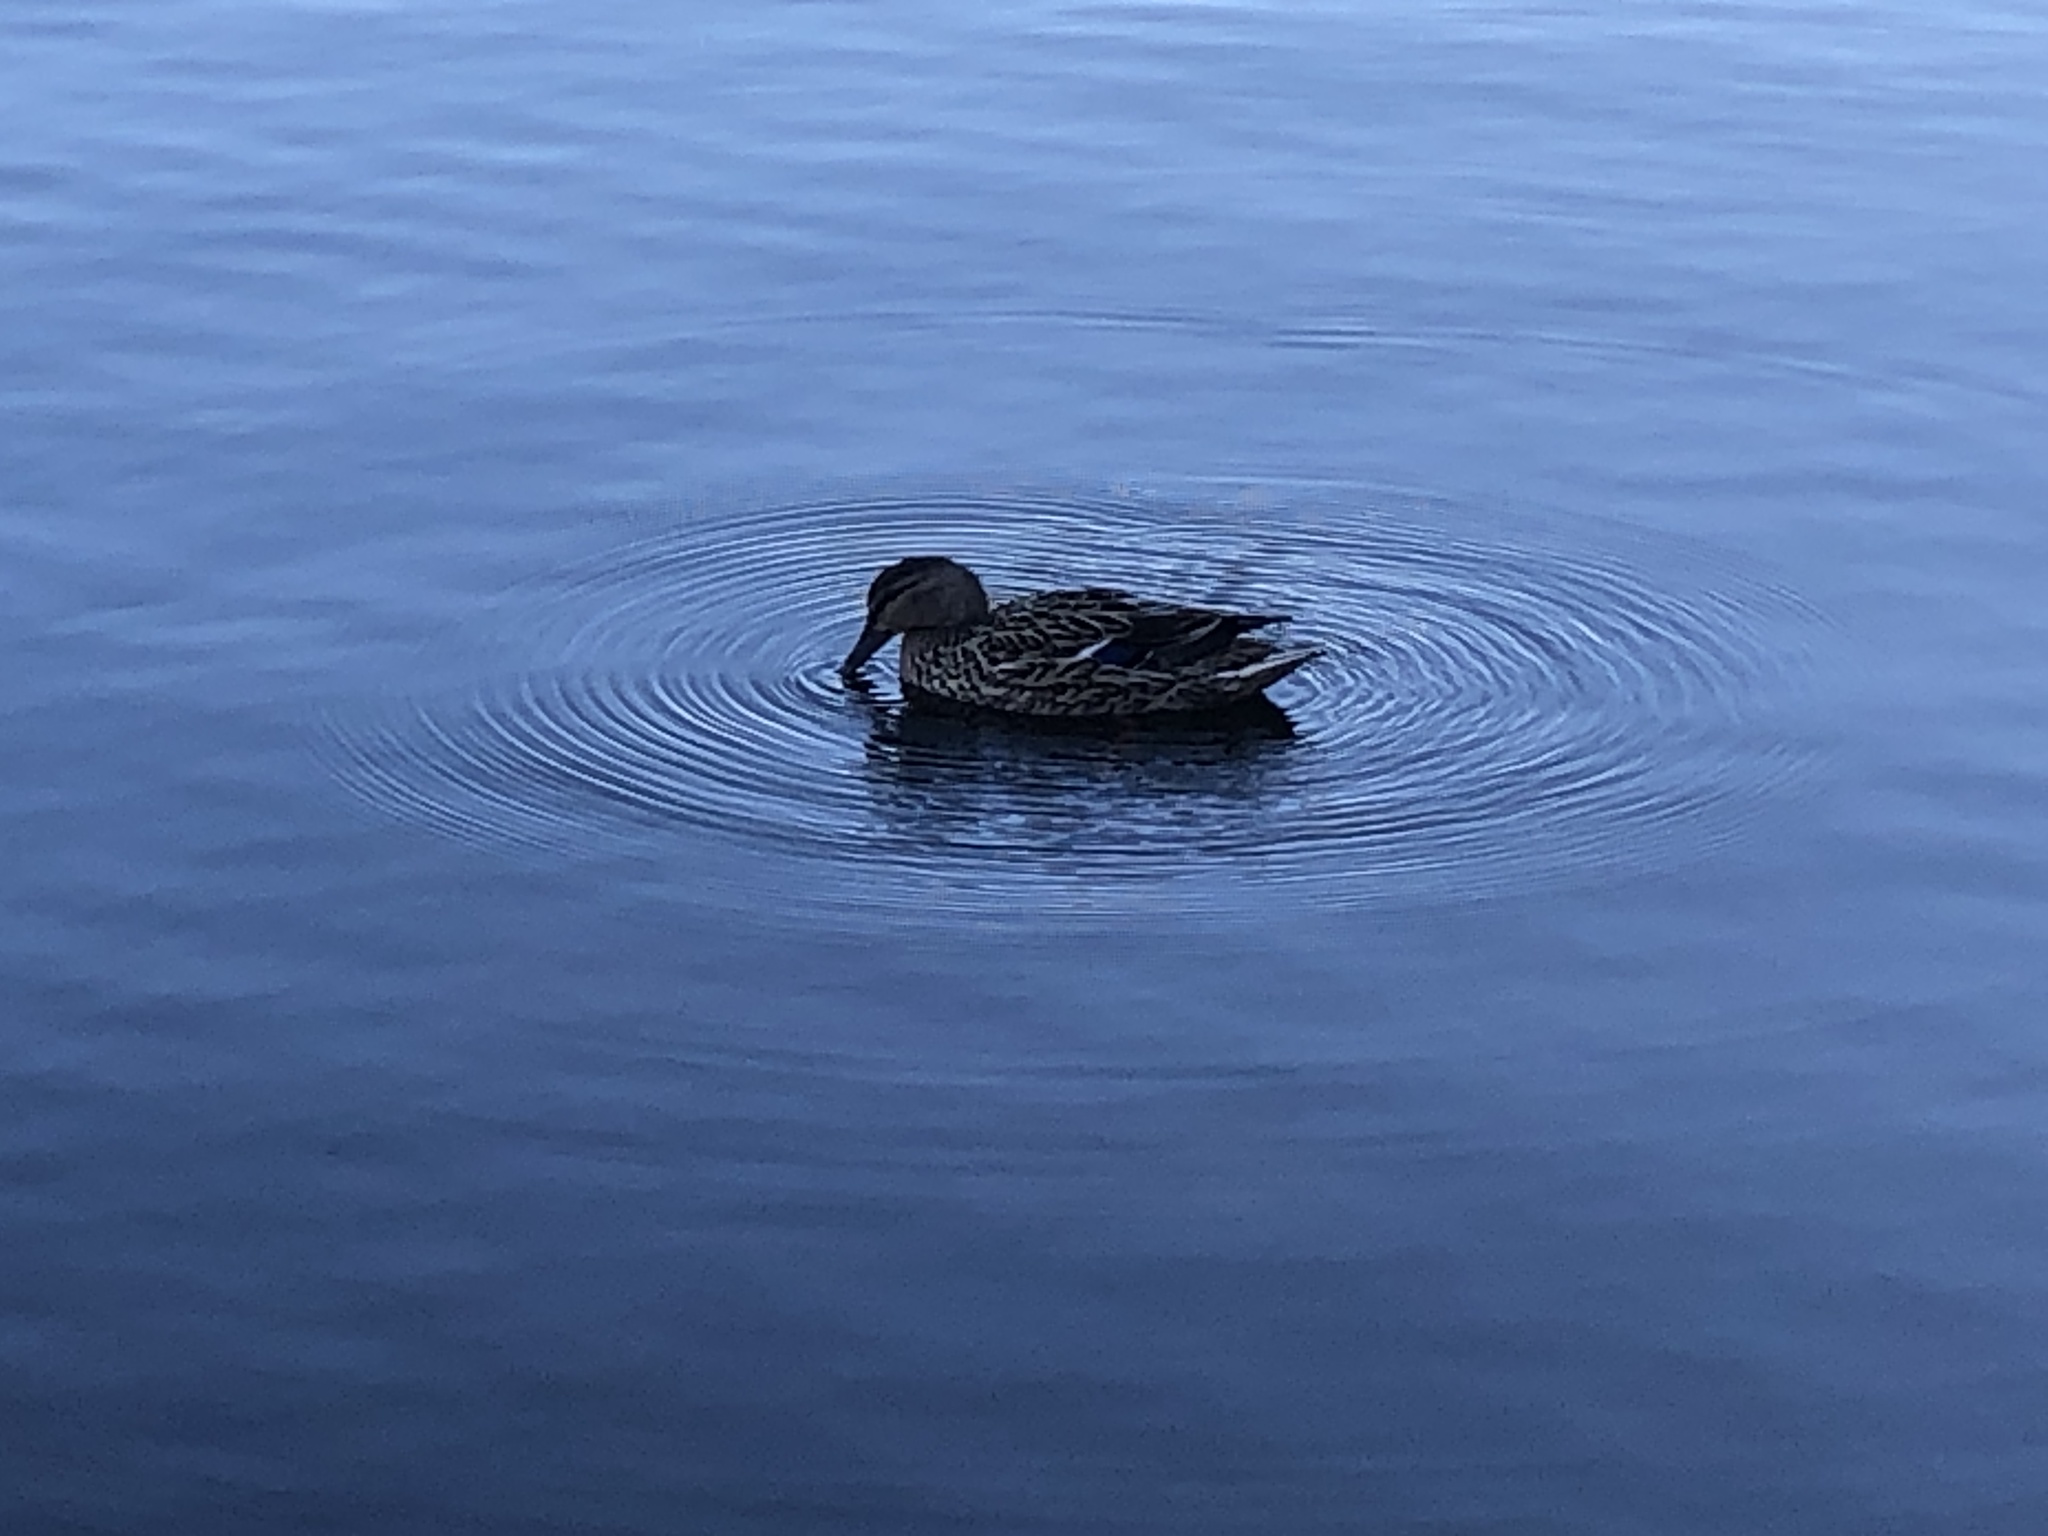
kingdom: Animalia
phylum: Chordata
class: Aves
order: Anseriformes
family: Anatidae
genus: Anas
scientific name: Anas platyrhynchos
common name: Mallard
